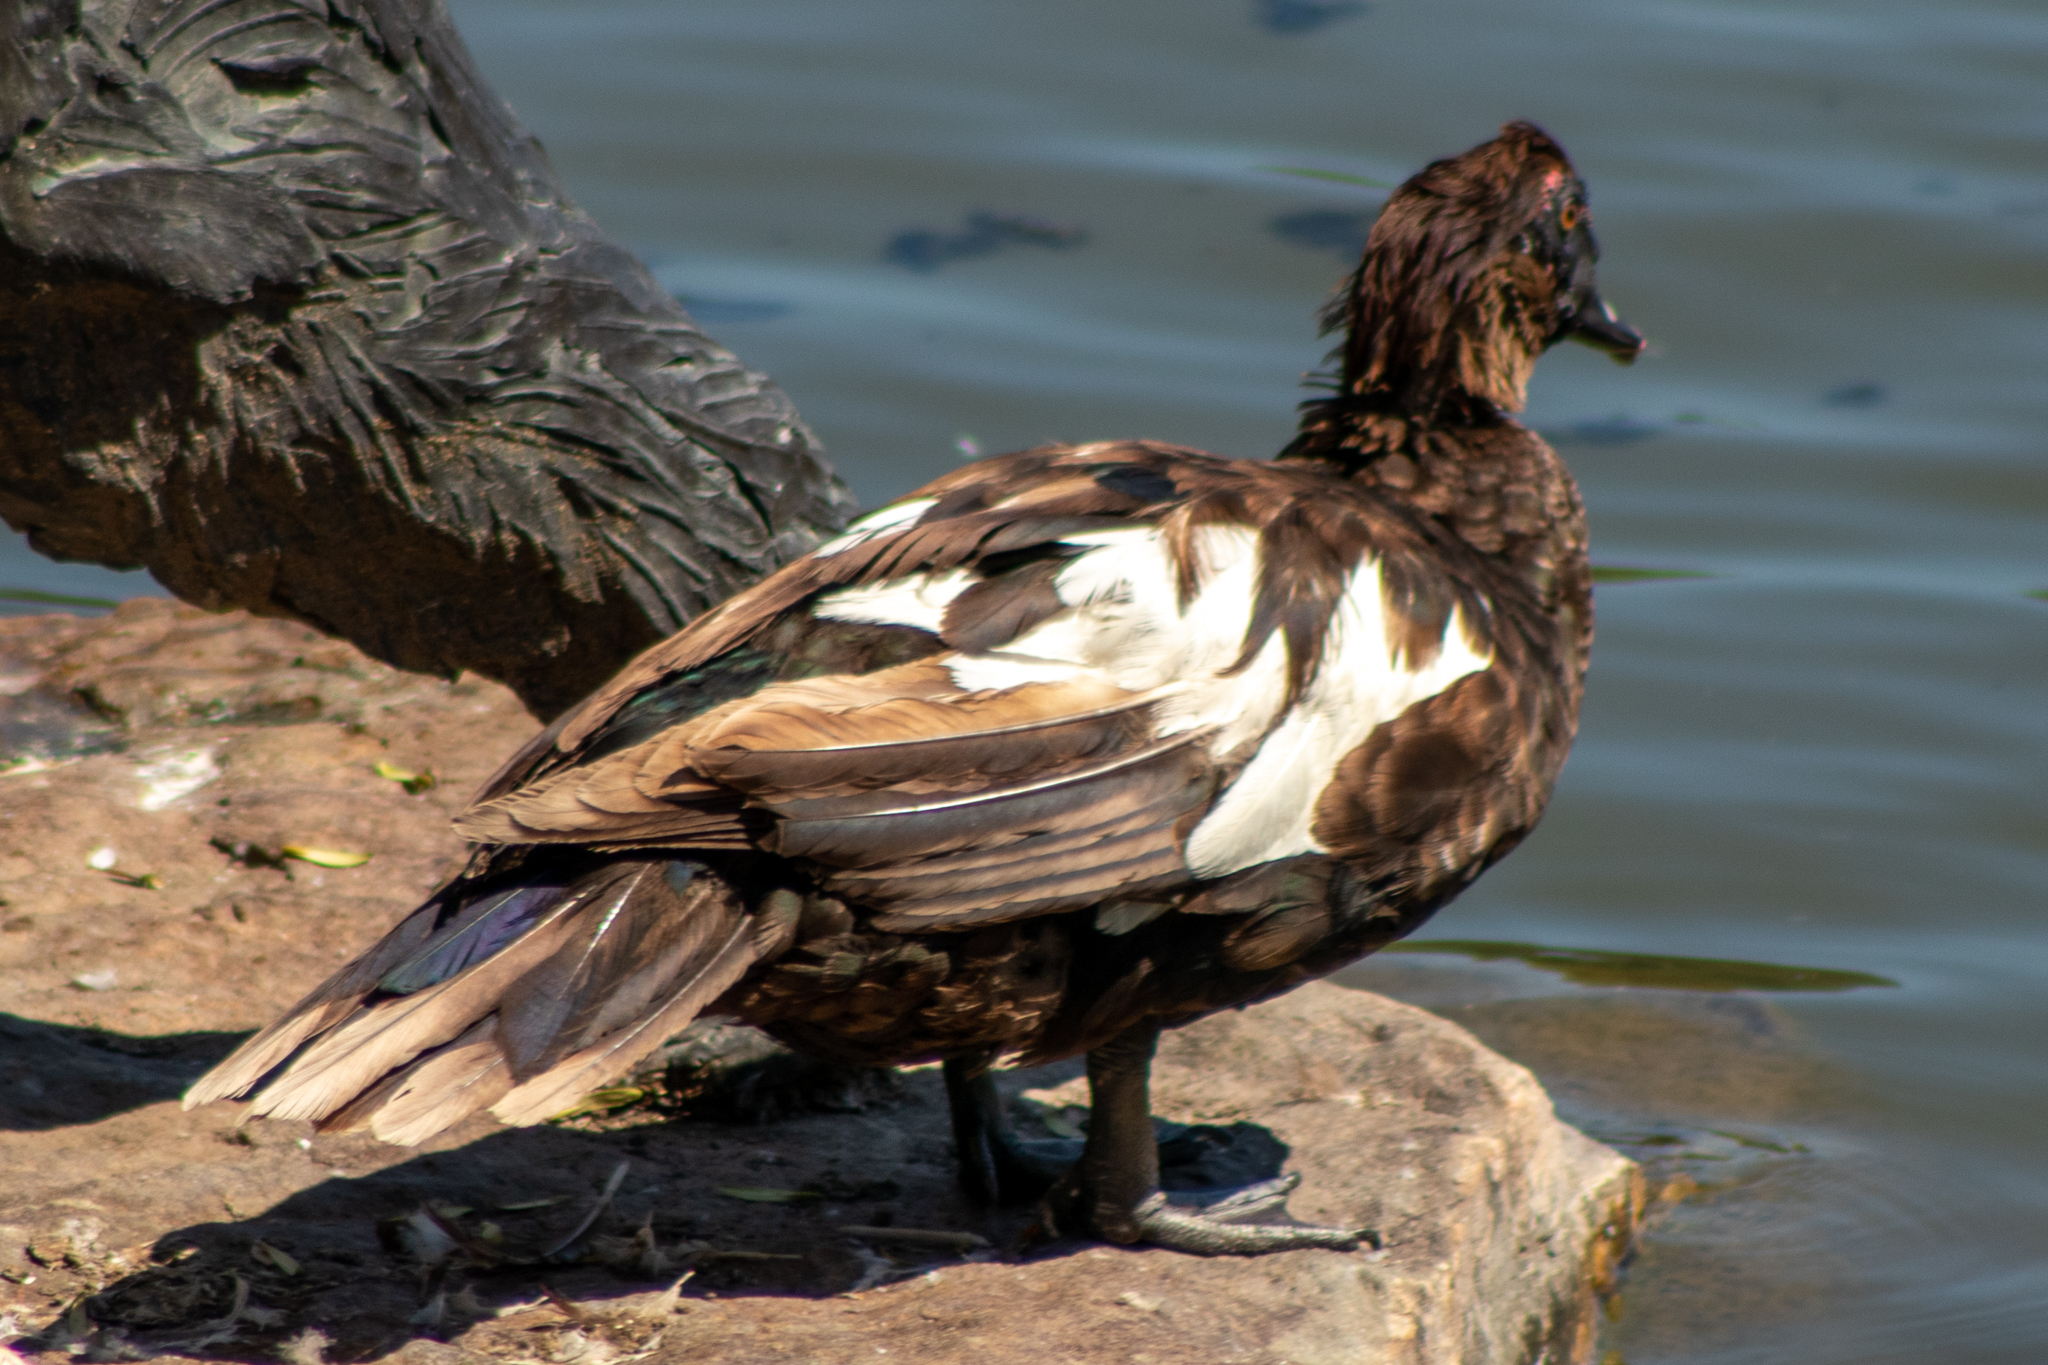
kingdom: Animalia
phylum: Chordata
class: Aves
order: Anseriformes
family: Anatidae
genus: Cairina
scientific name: Cairina moschata
